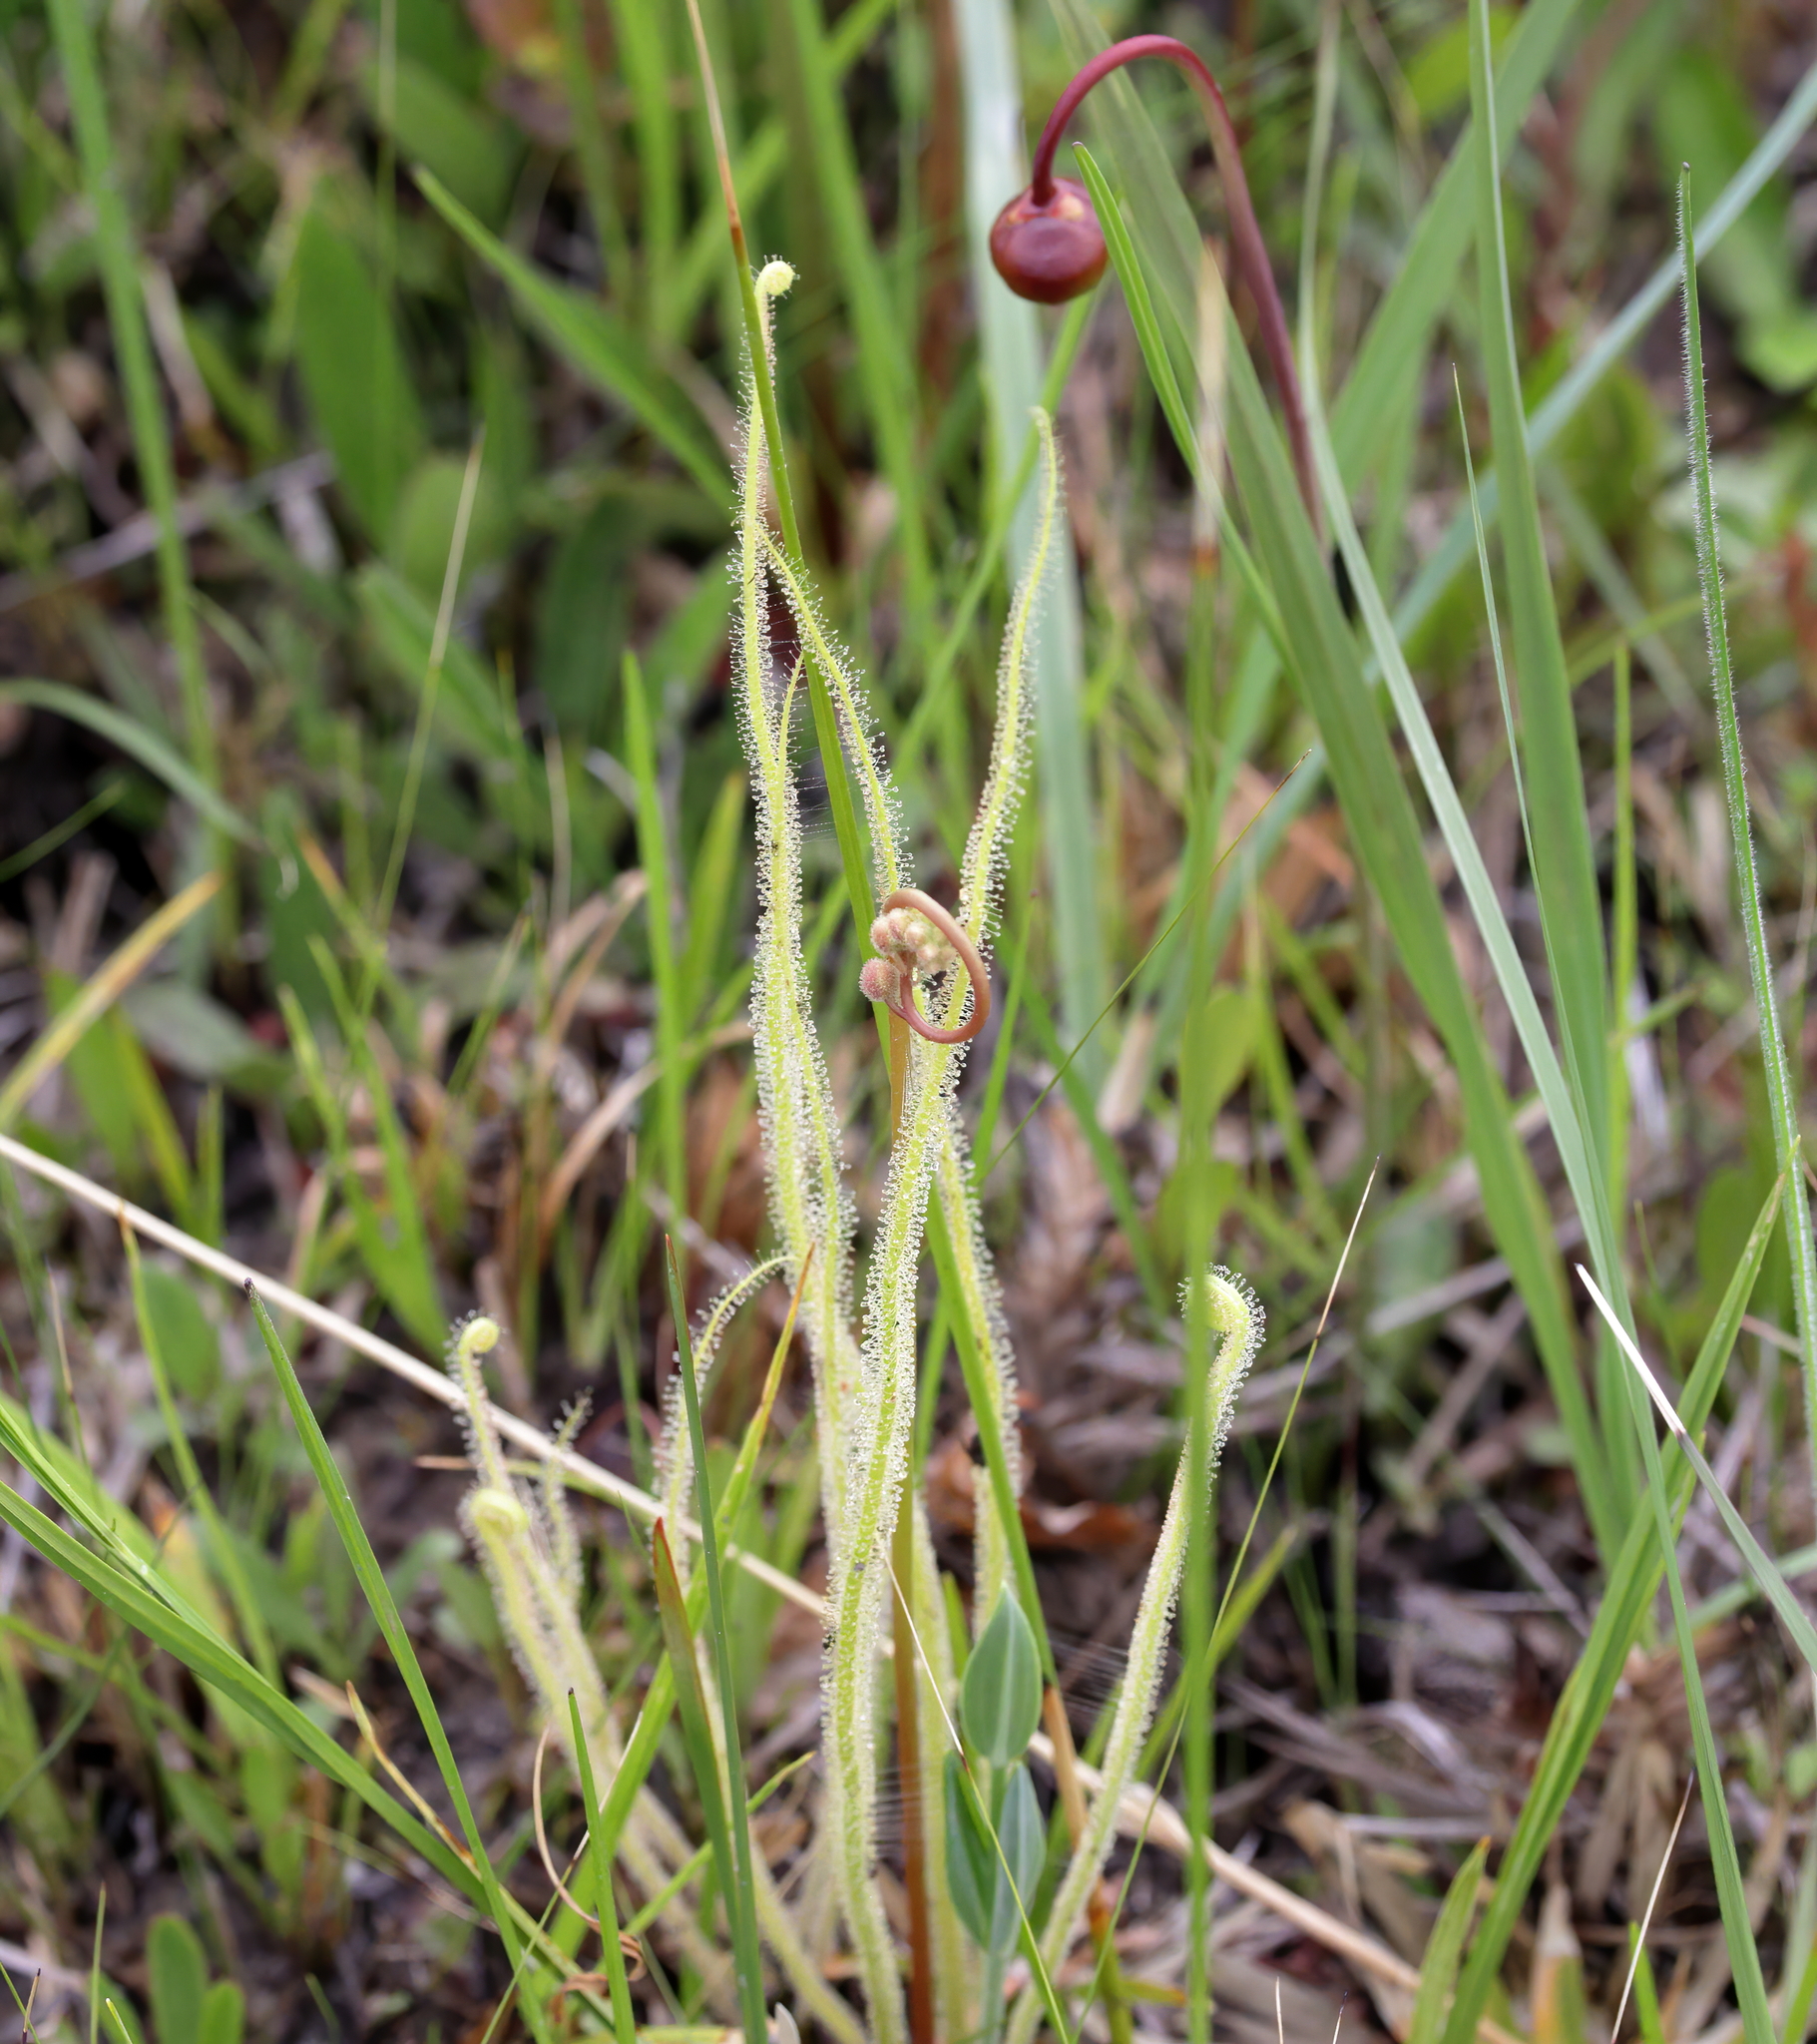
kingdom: Plantae
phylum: Tracheophyta
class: Magnoliopsida
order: Caryophyllales
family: Droseraceae
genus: Drosera
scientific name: Drosera filiformis
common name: Dew-thread
